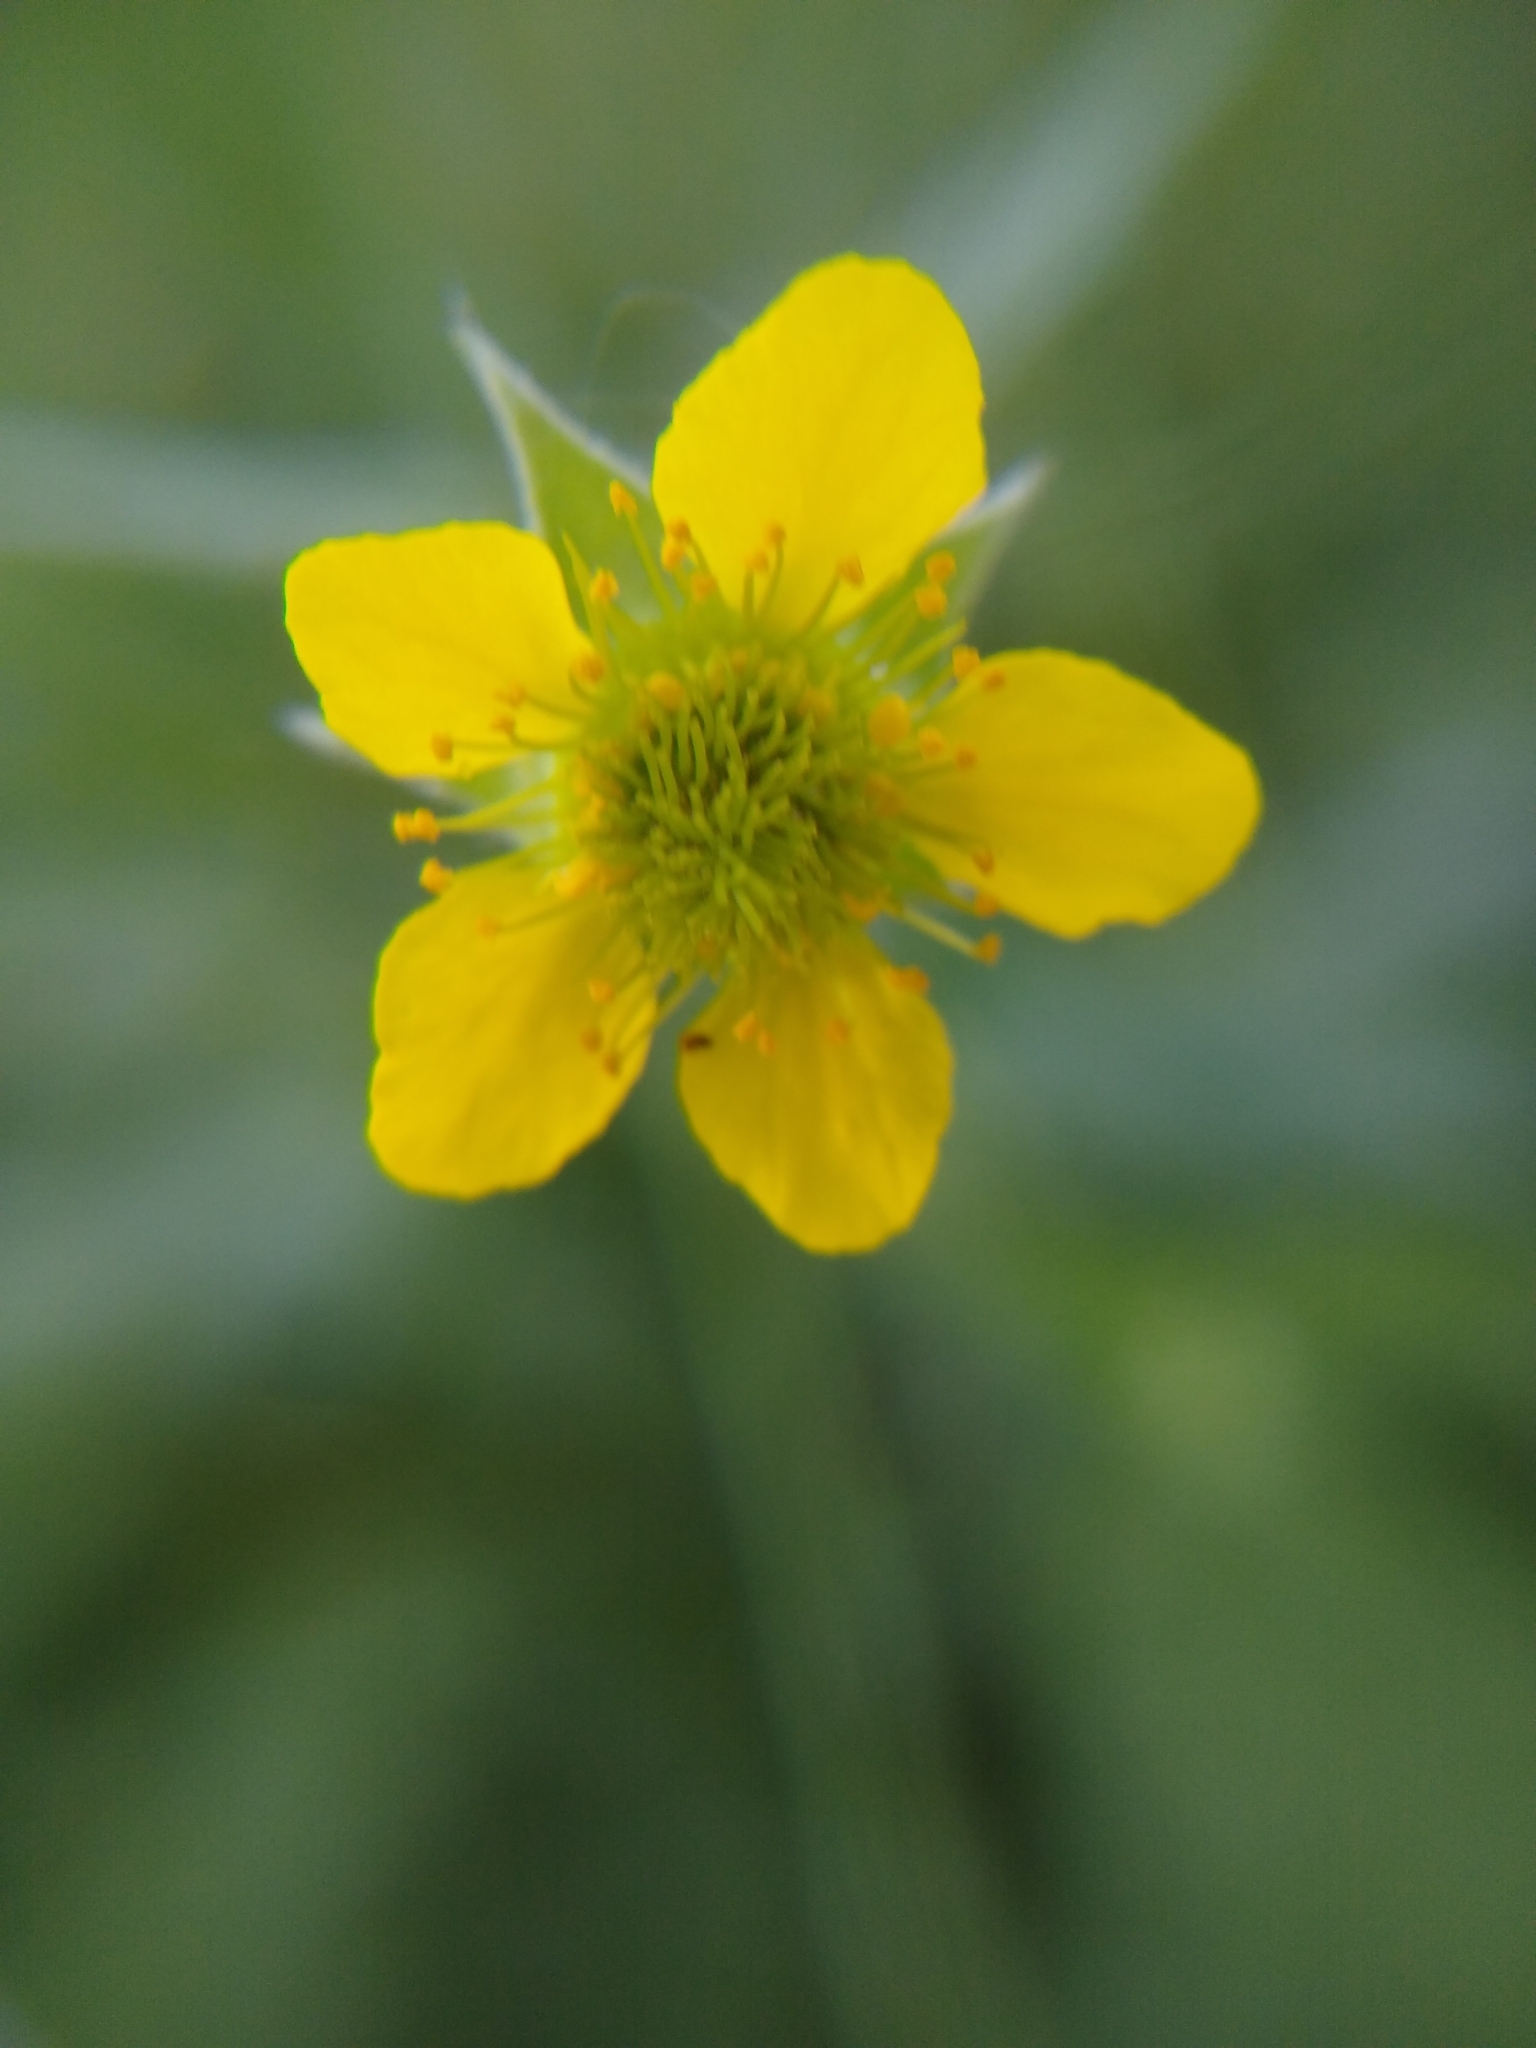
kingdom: Plantae
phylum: Tracheophyta
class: Magnoliopsida
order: Rosales
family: Rosaceae
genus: Geum
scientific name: Geum urbanum
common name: Wood avens
